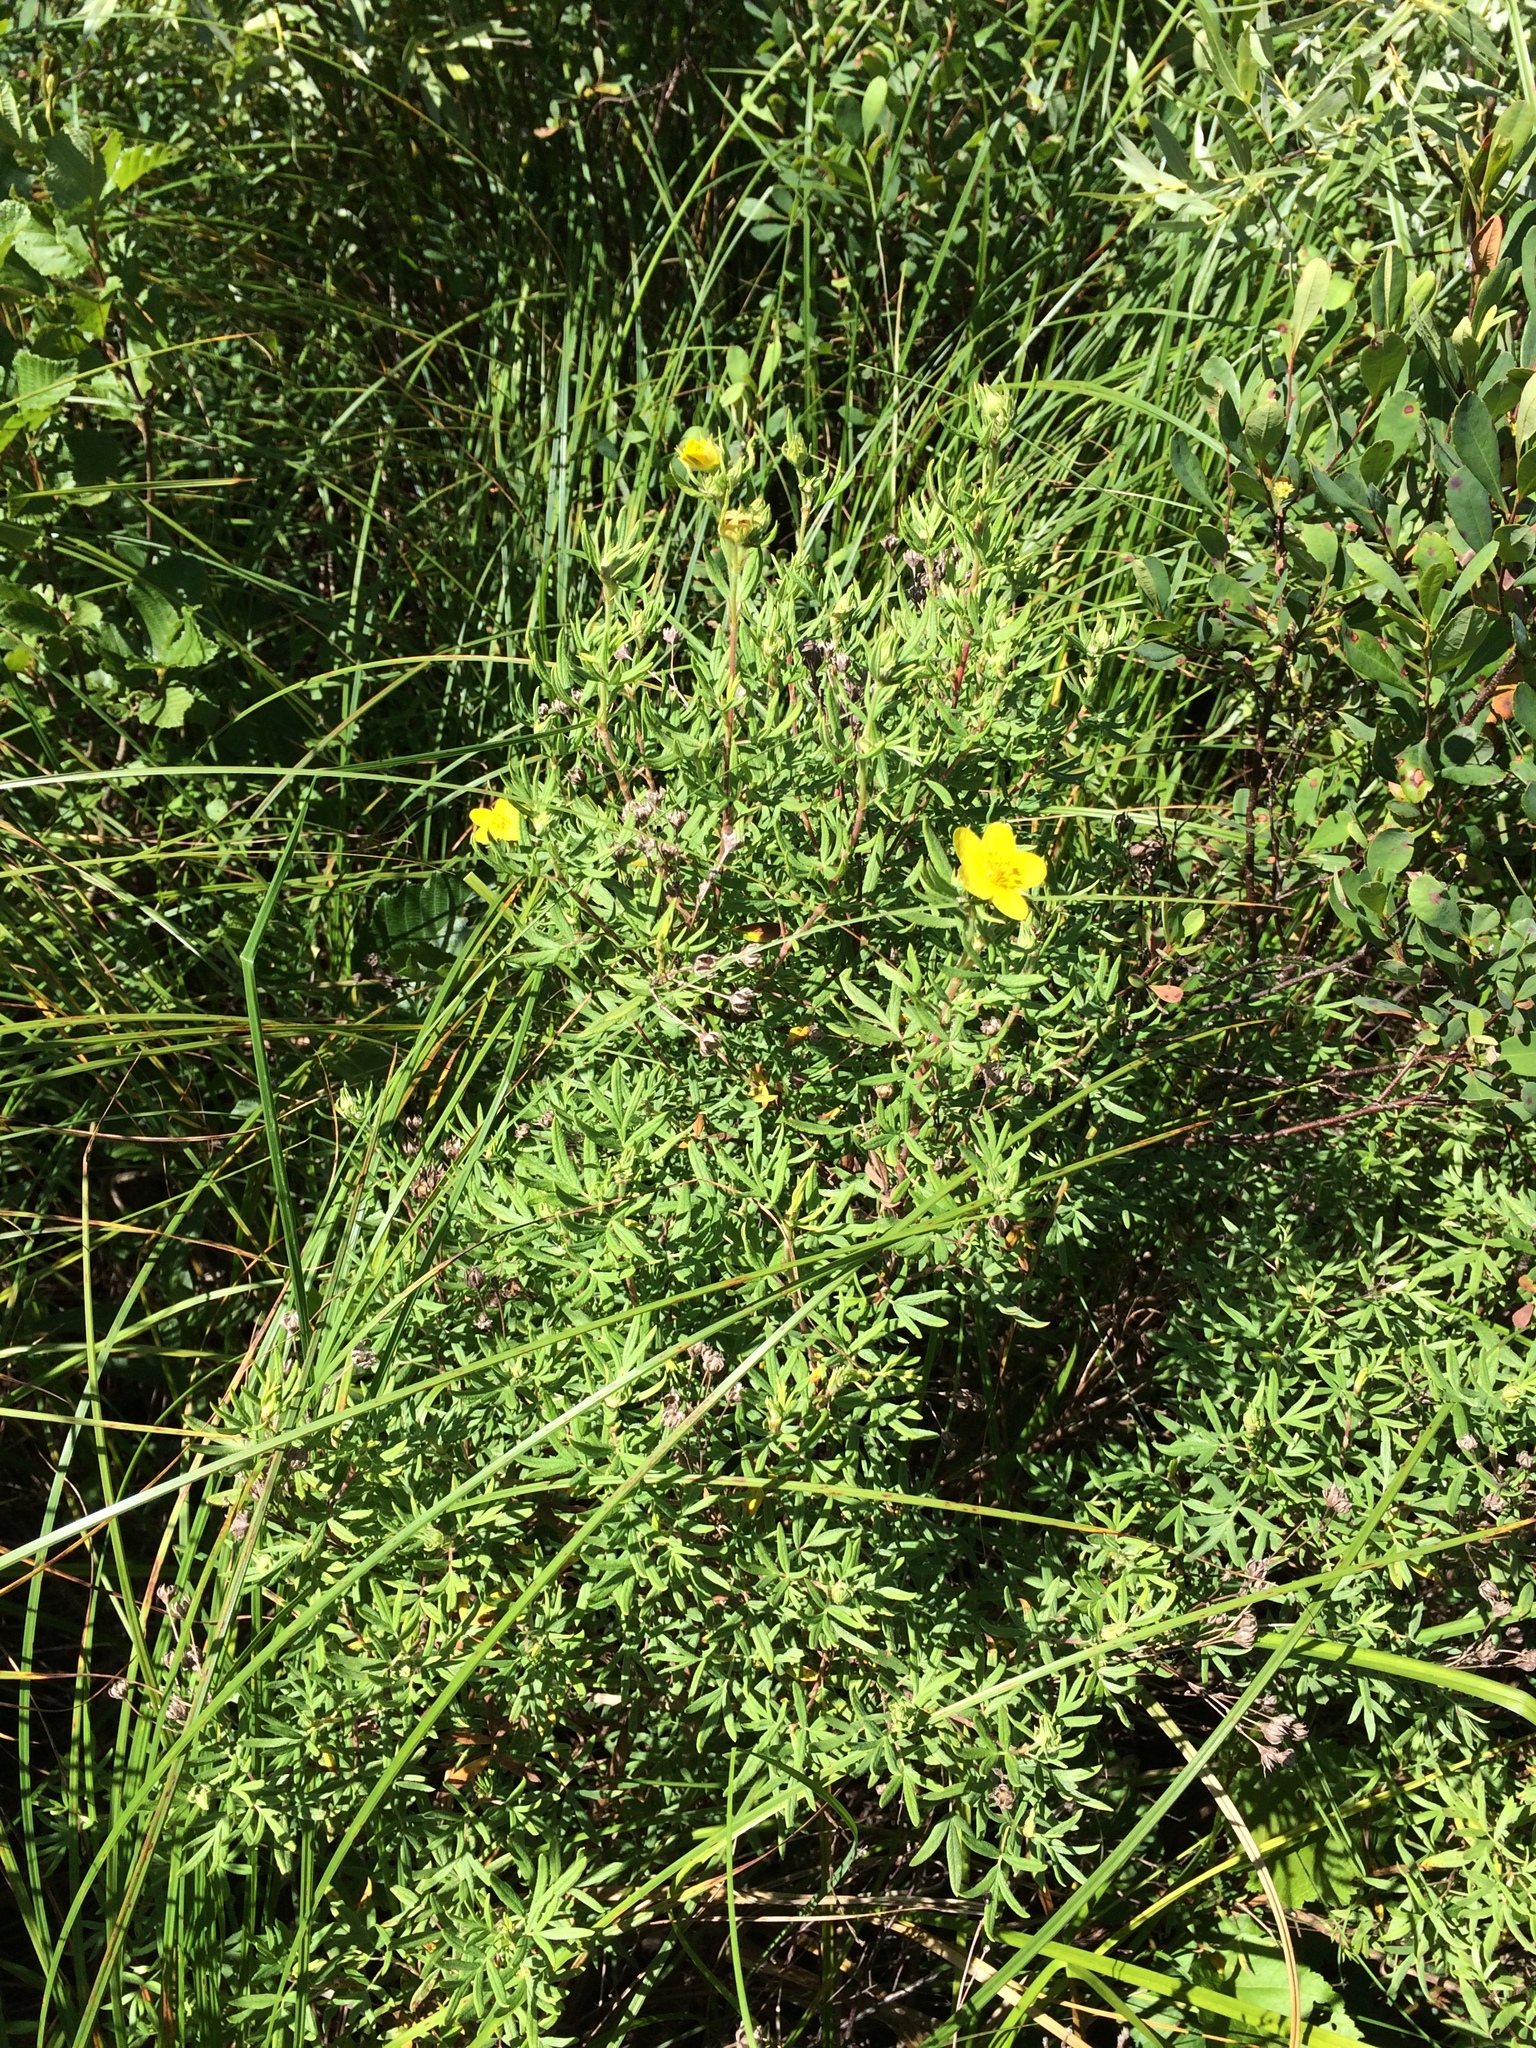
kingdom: Plantae
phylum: Tracheophyta
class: Magnoliopsida
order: Rosales
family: Rosaceae
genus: Dasiphora
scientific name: Dasiphora fruticosa
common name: Shrubby cinquefoil
